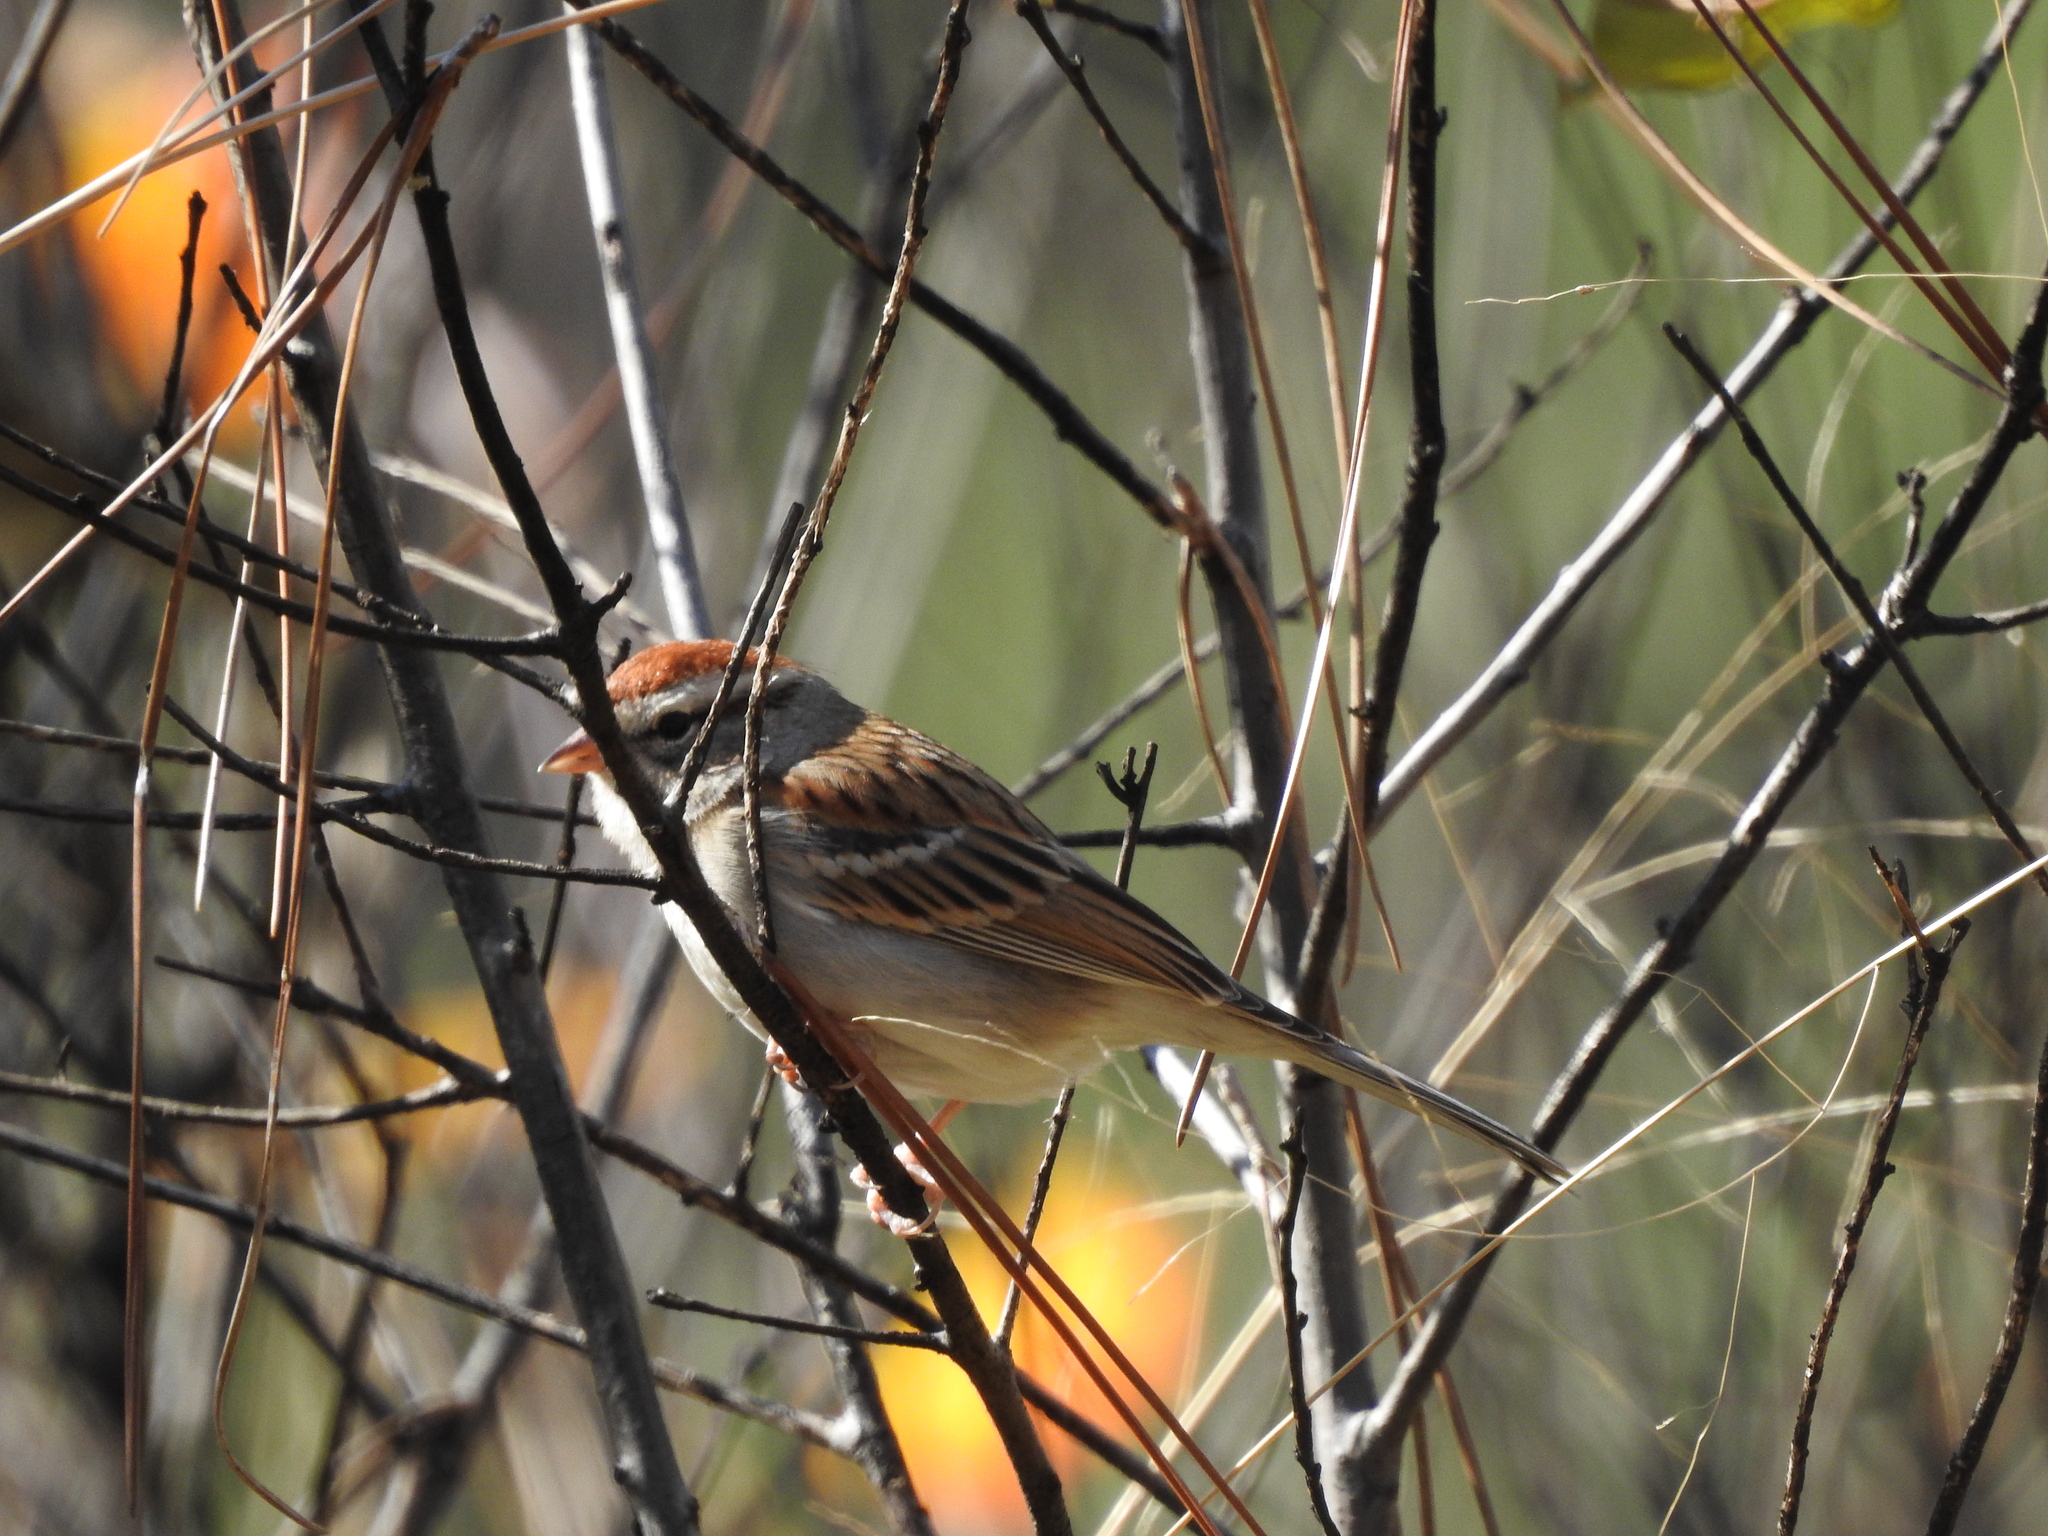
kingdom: Animalia
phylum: Chordata
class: Aves
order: Passeriformes
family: Passerellidae
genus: Spizella
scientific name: Spizella passerina
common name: Chipping sparrow
